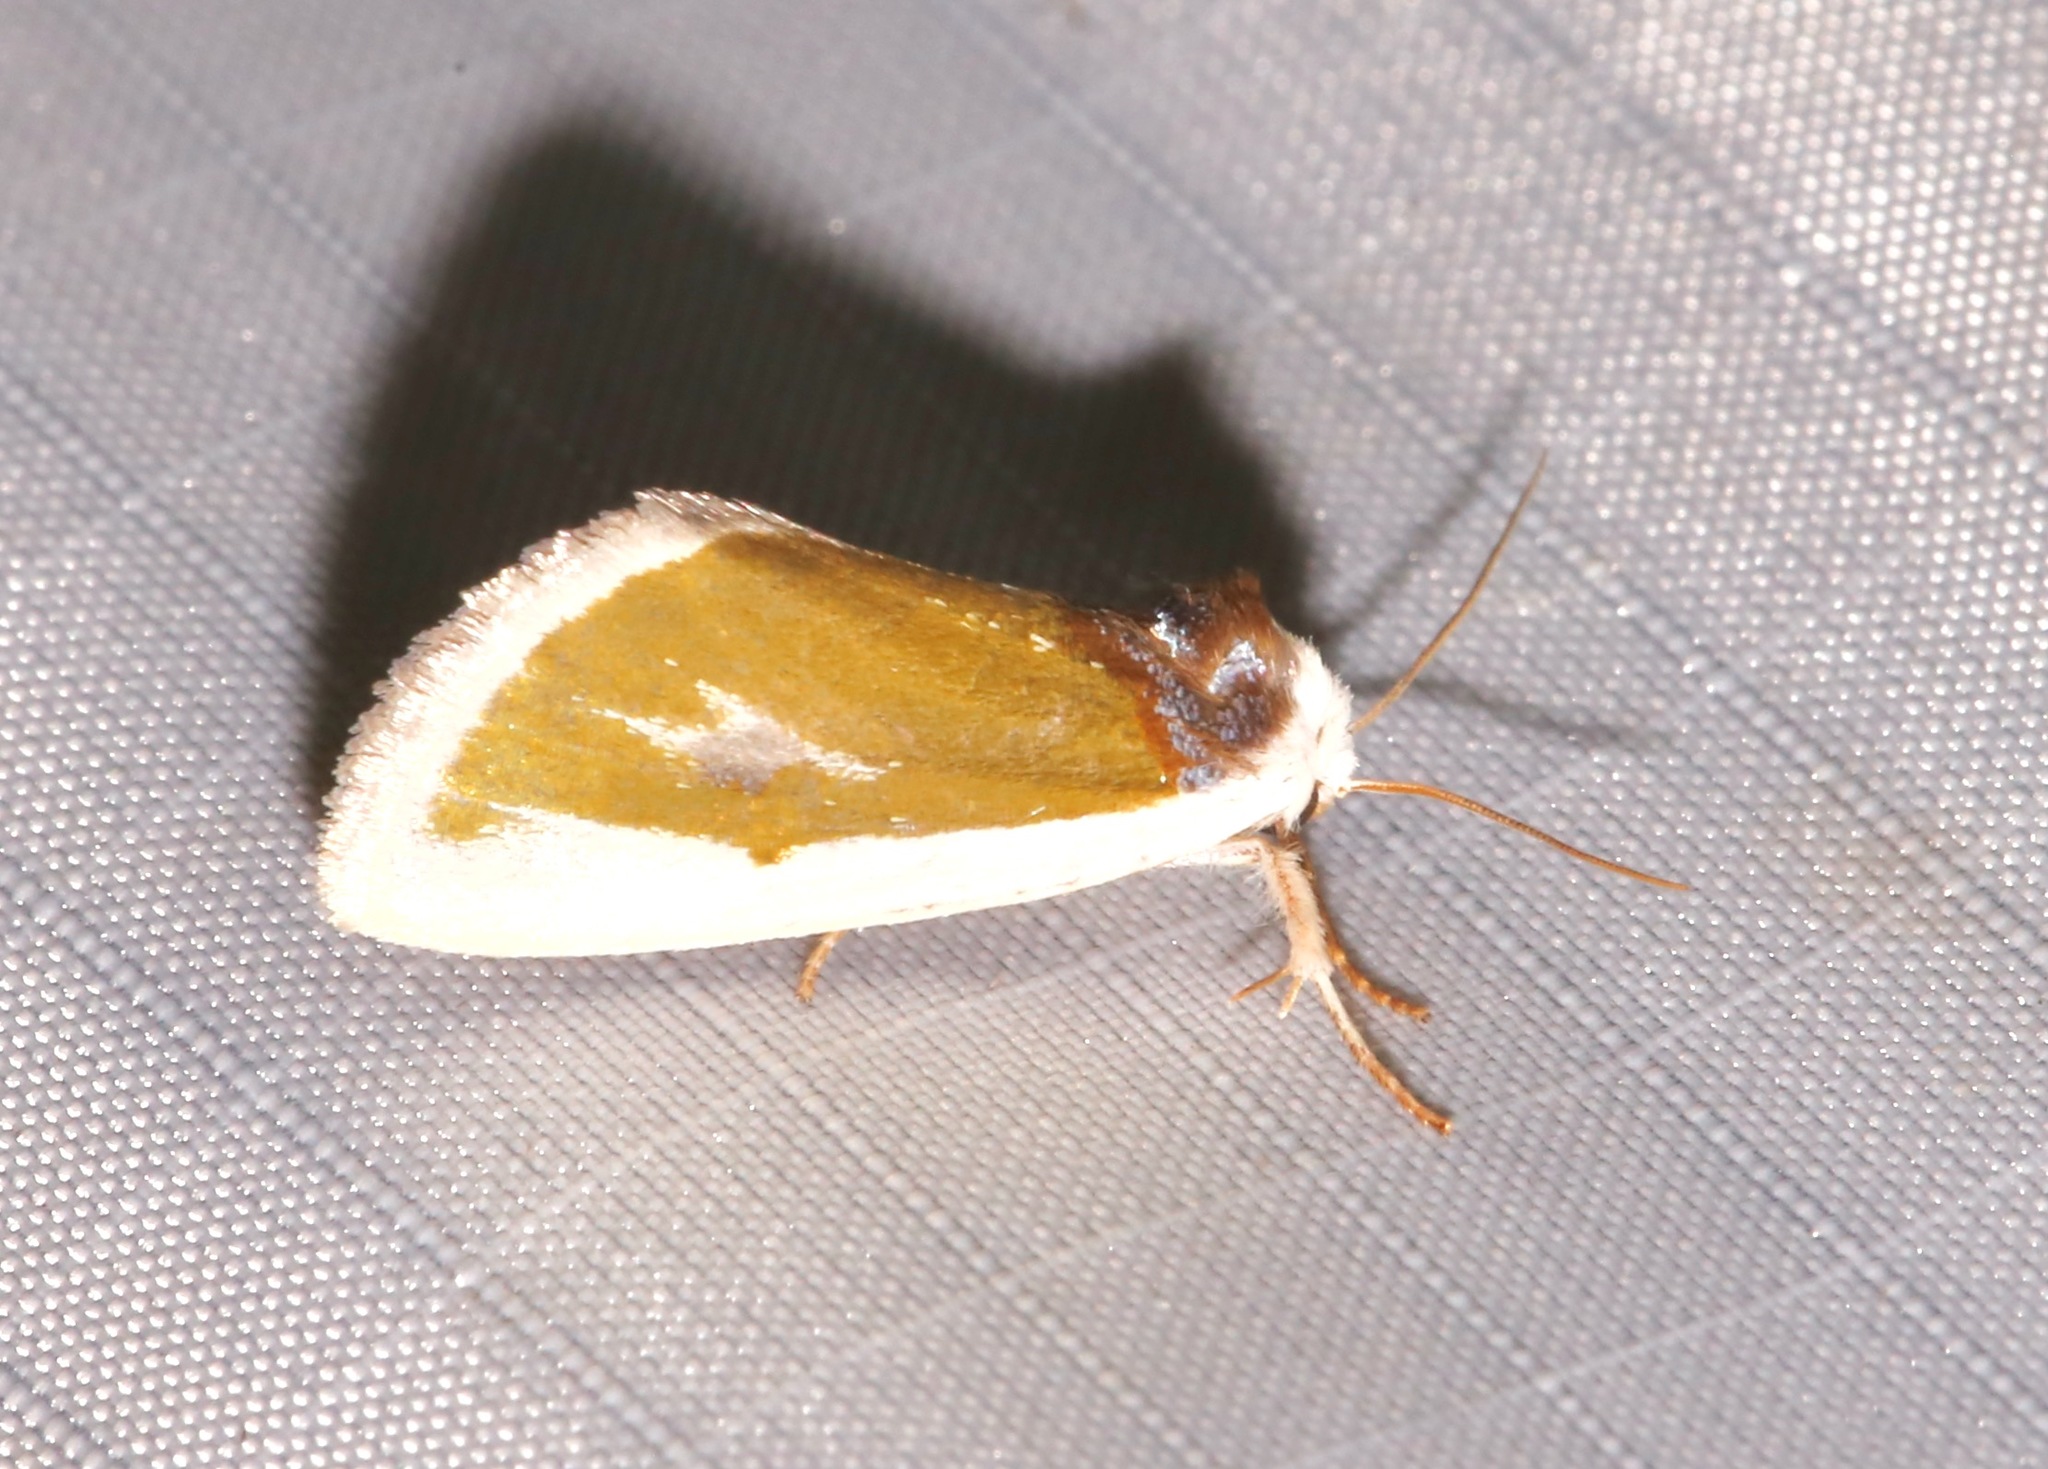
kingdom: Animalia
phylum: Arthropoda
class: Insecta
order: Lepidoptera
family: Noctuidae
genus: Neumoegenia
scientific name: Neumoegenia poetica
